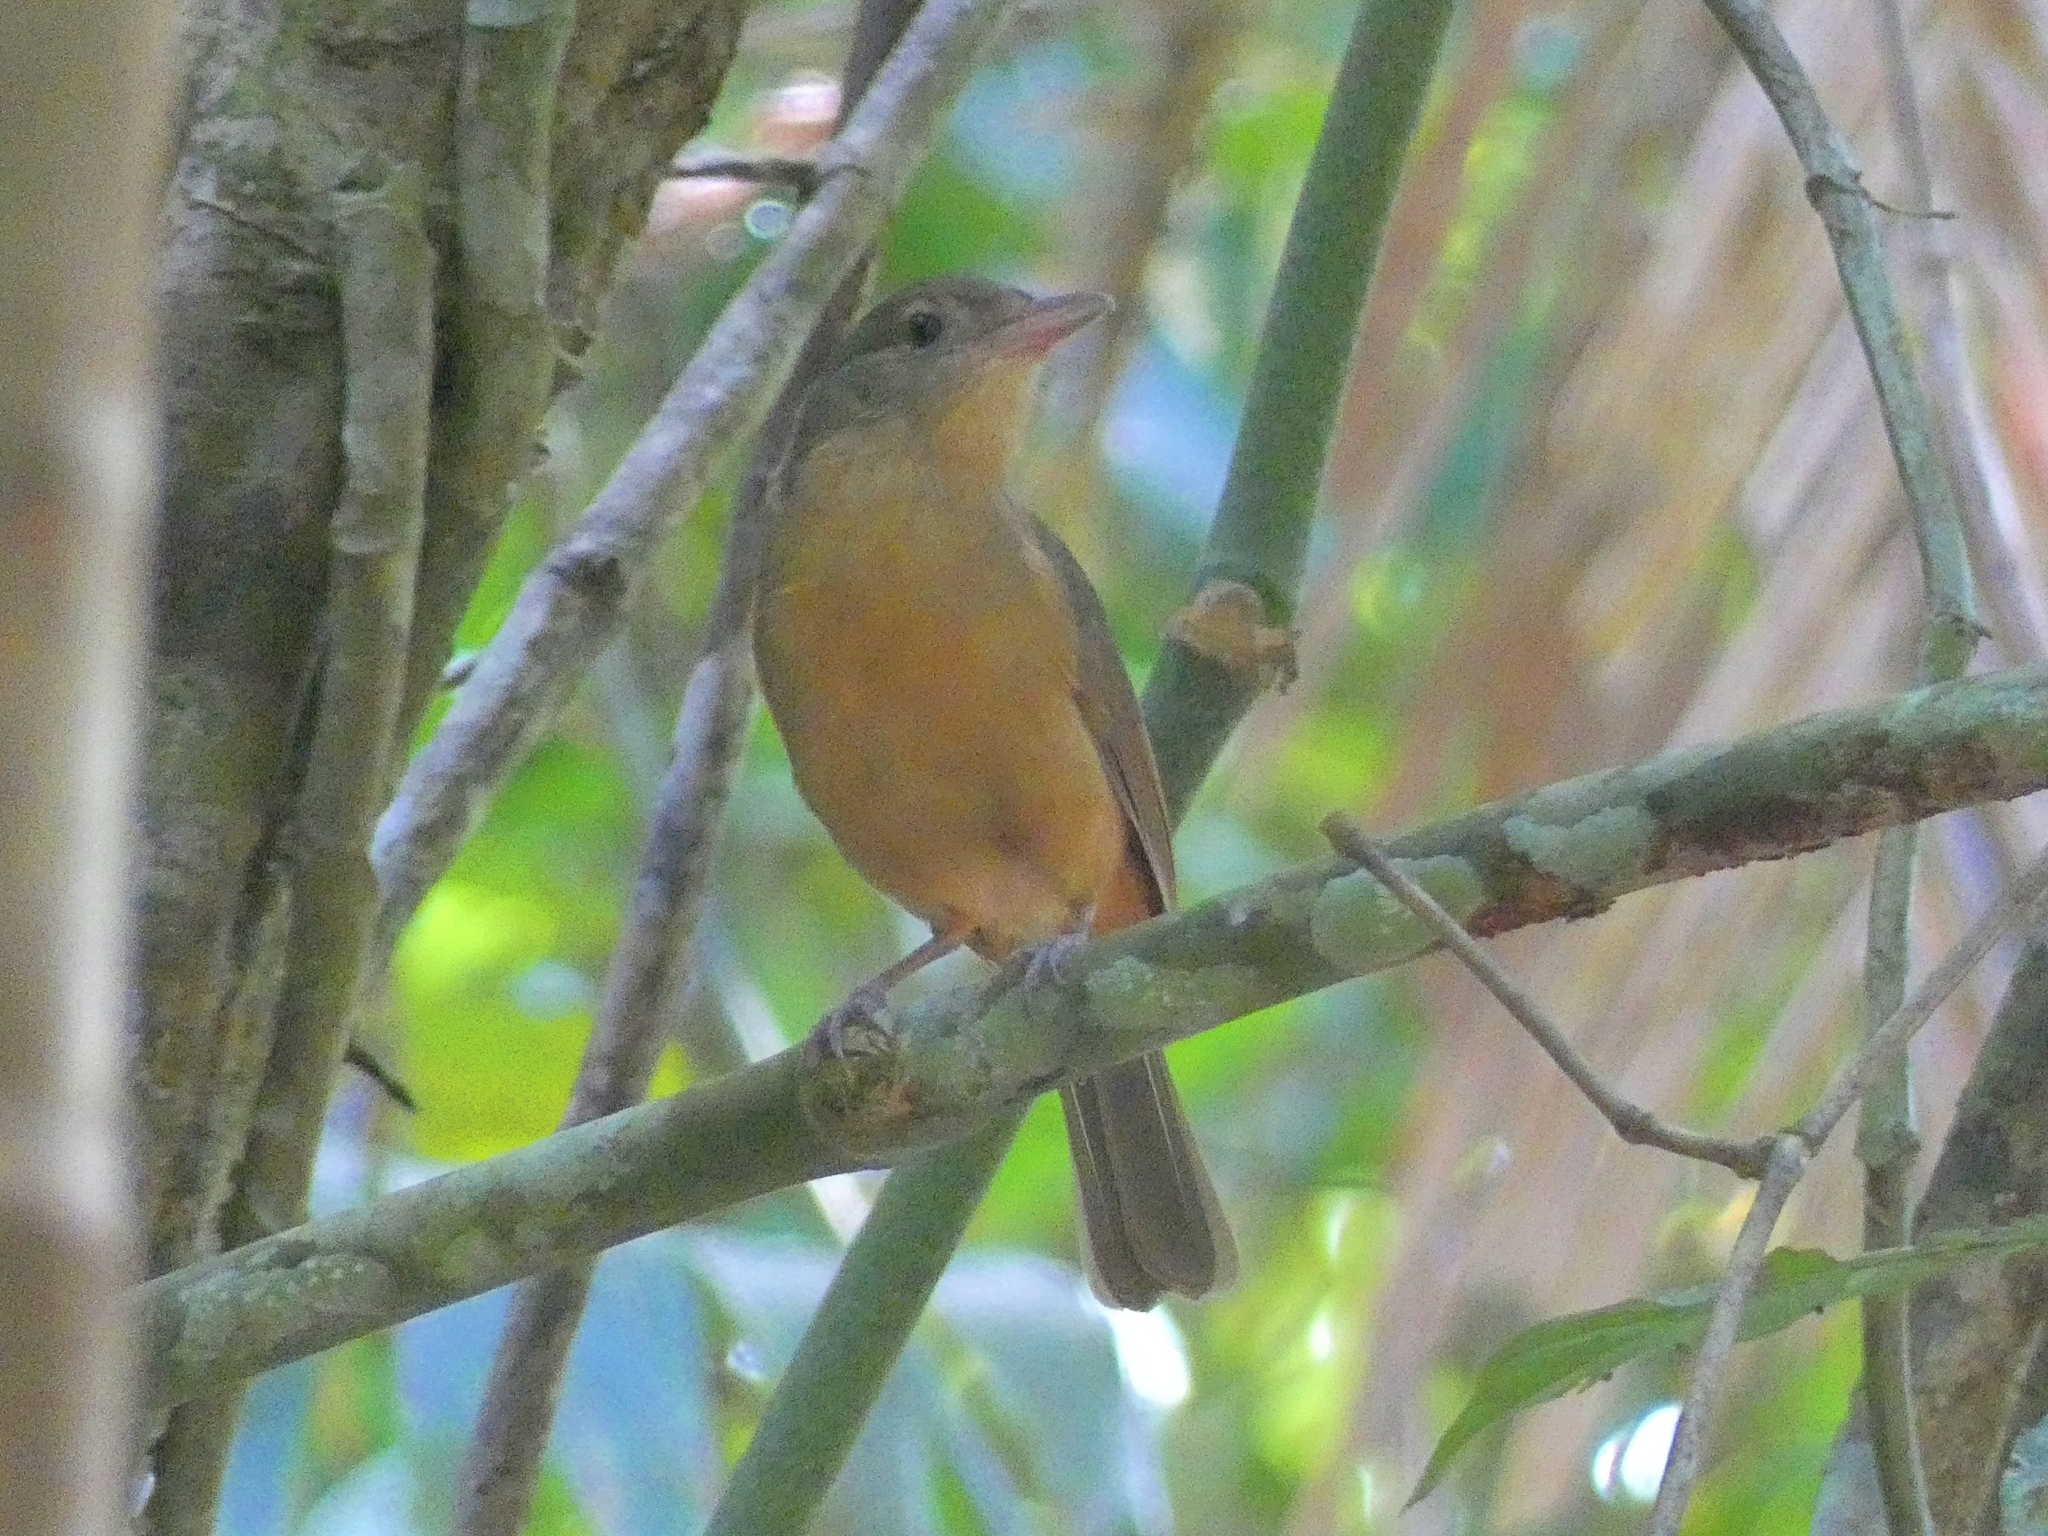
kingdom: Animalia
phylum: Chordata
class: Aves
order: Passeriformes
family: Pachycephalidae
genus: Colluricincla
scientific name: Colluricincla rufogaster
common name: Rufous shrikethrush
